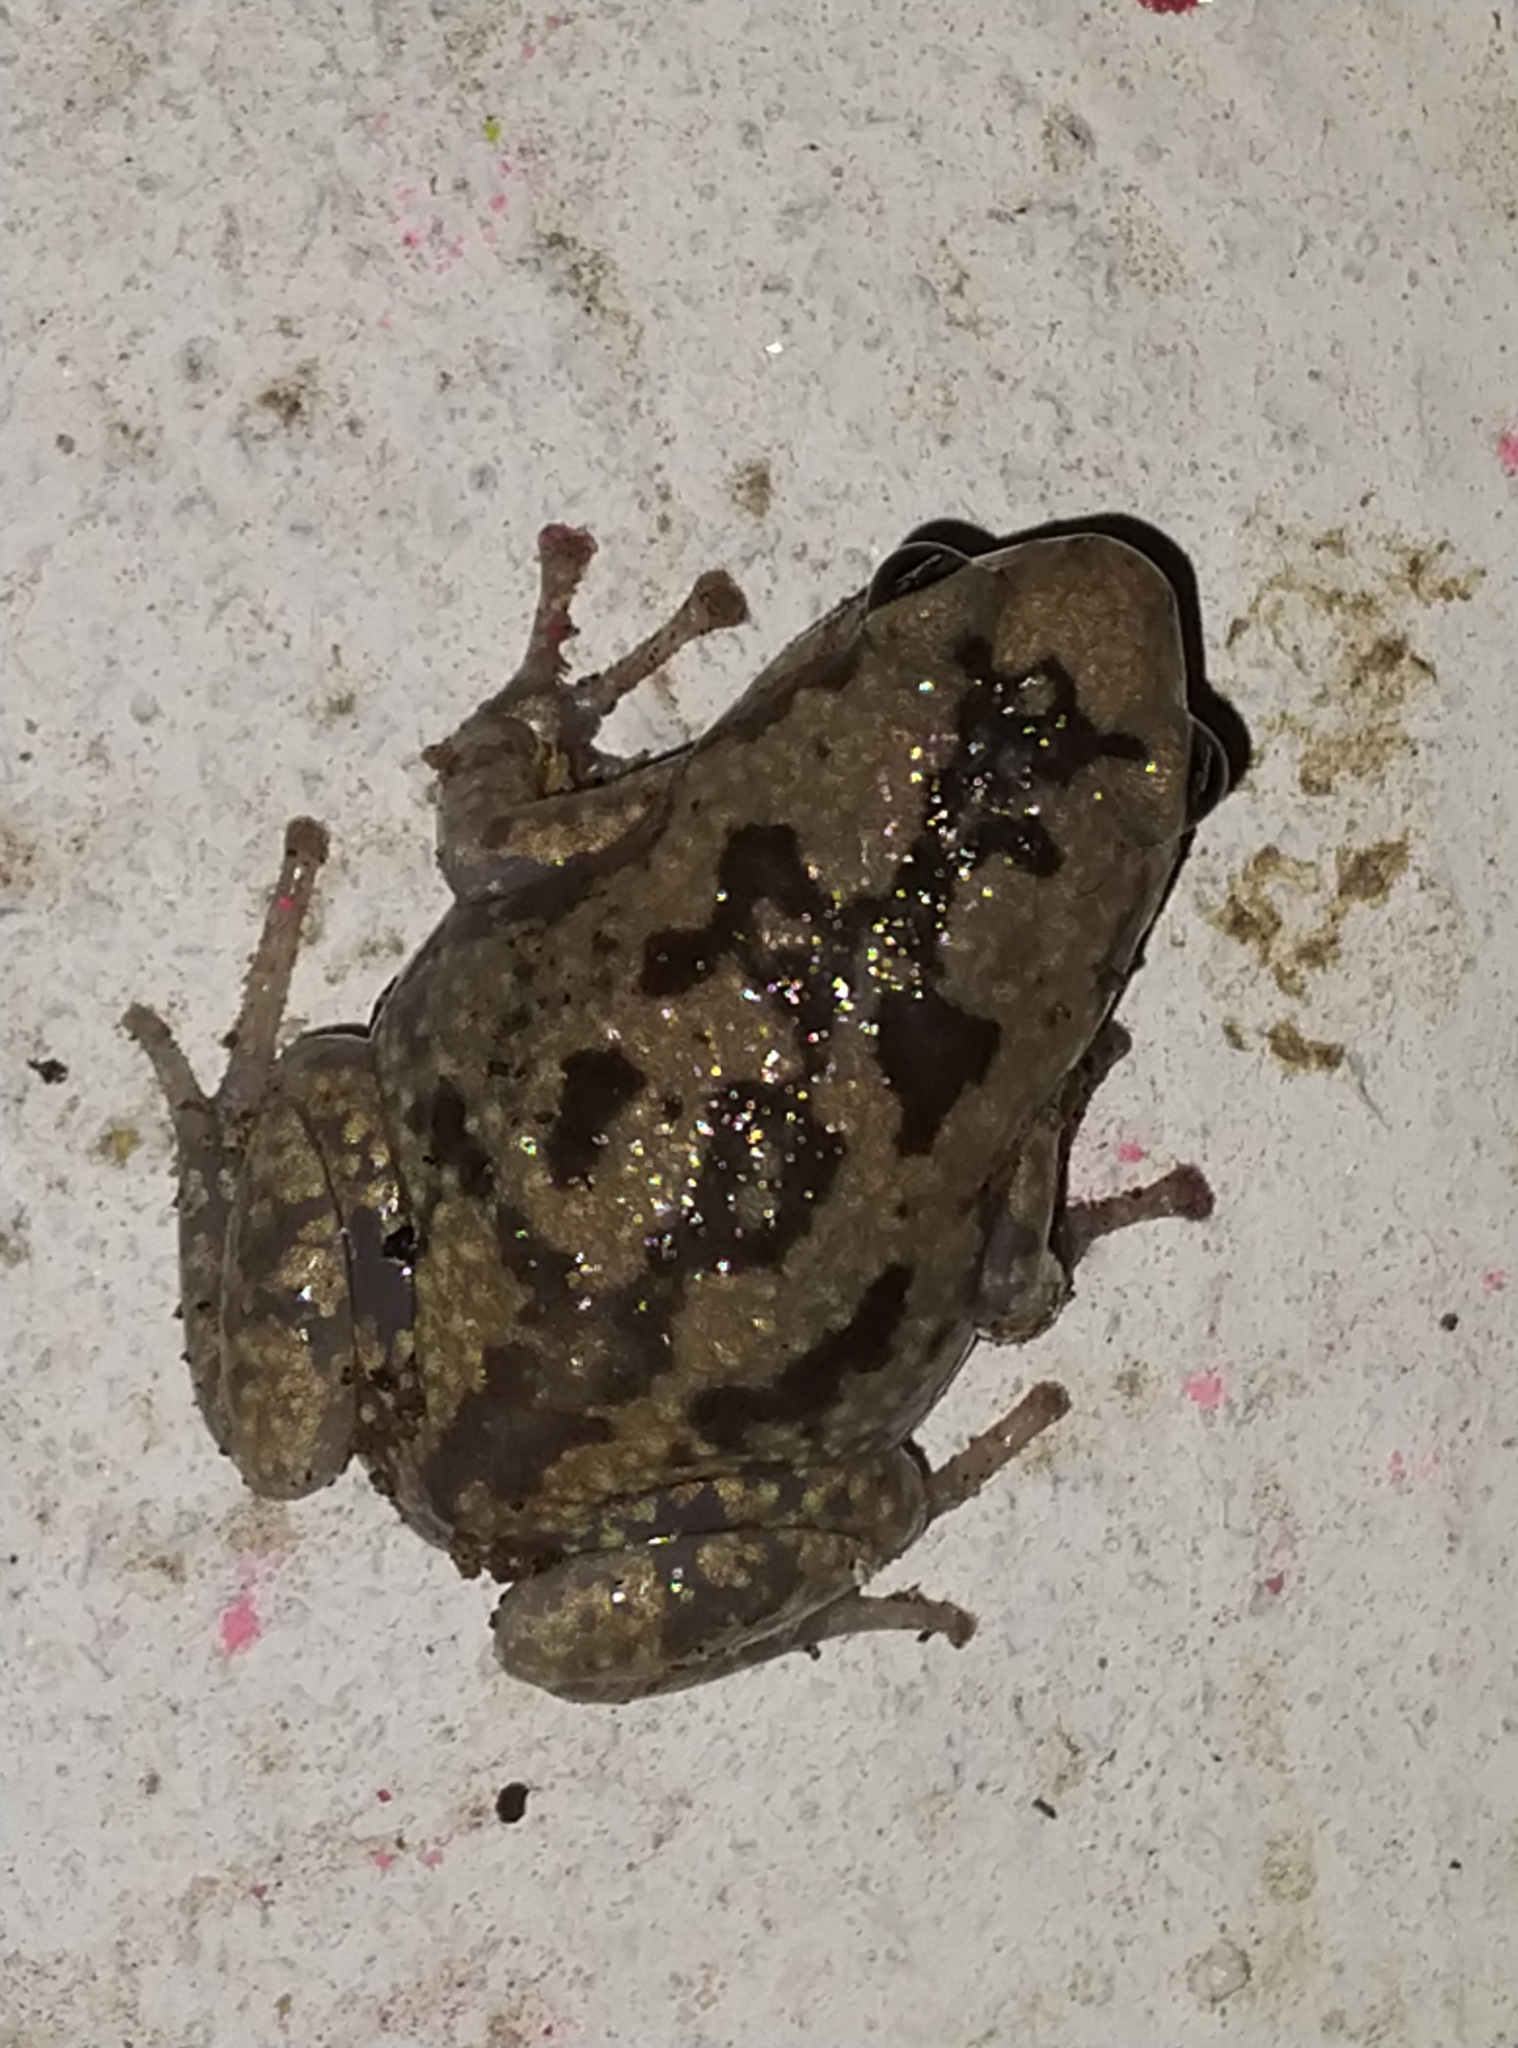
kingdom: Animalia
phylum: Chordata
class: Amphibia
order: Anura
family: Microhylidae
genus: Uperodon
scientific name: Uperodon variegatus
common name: Eluru dot frog
